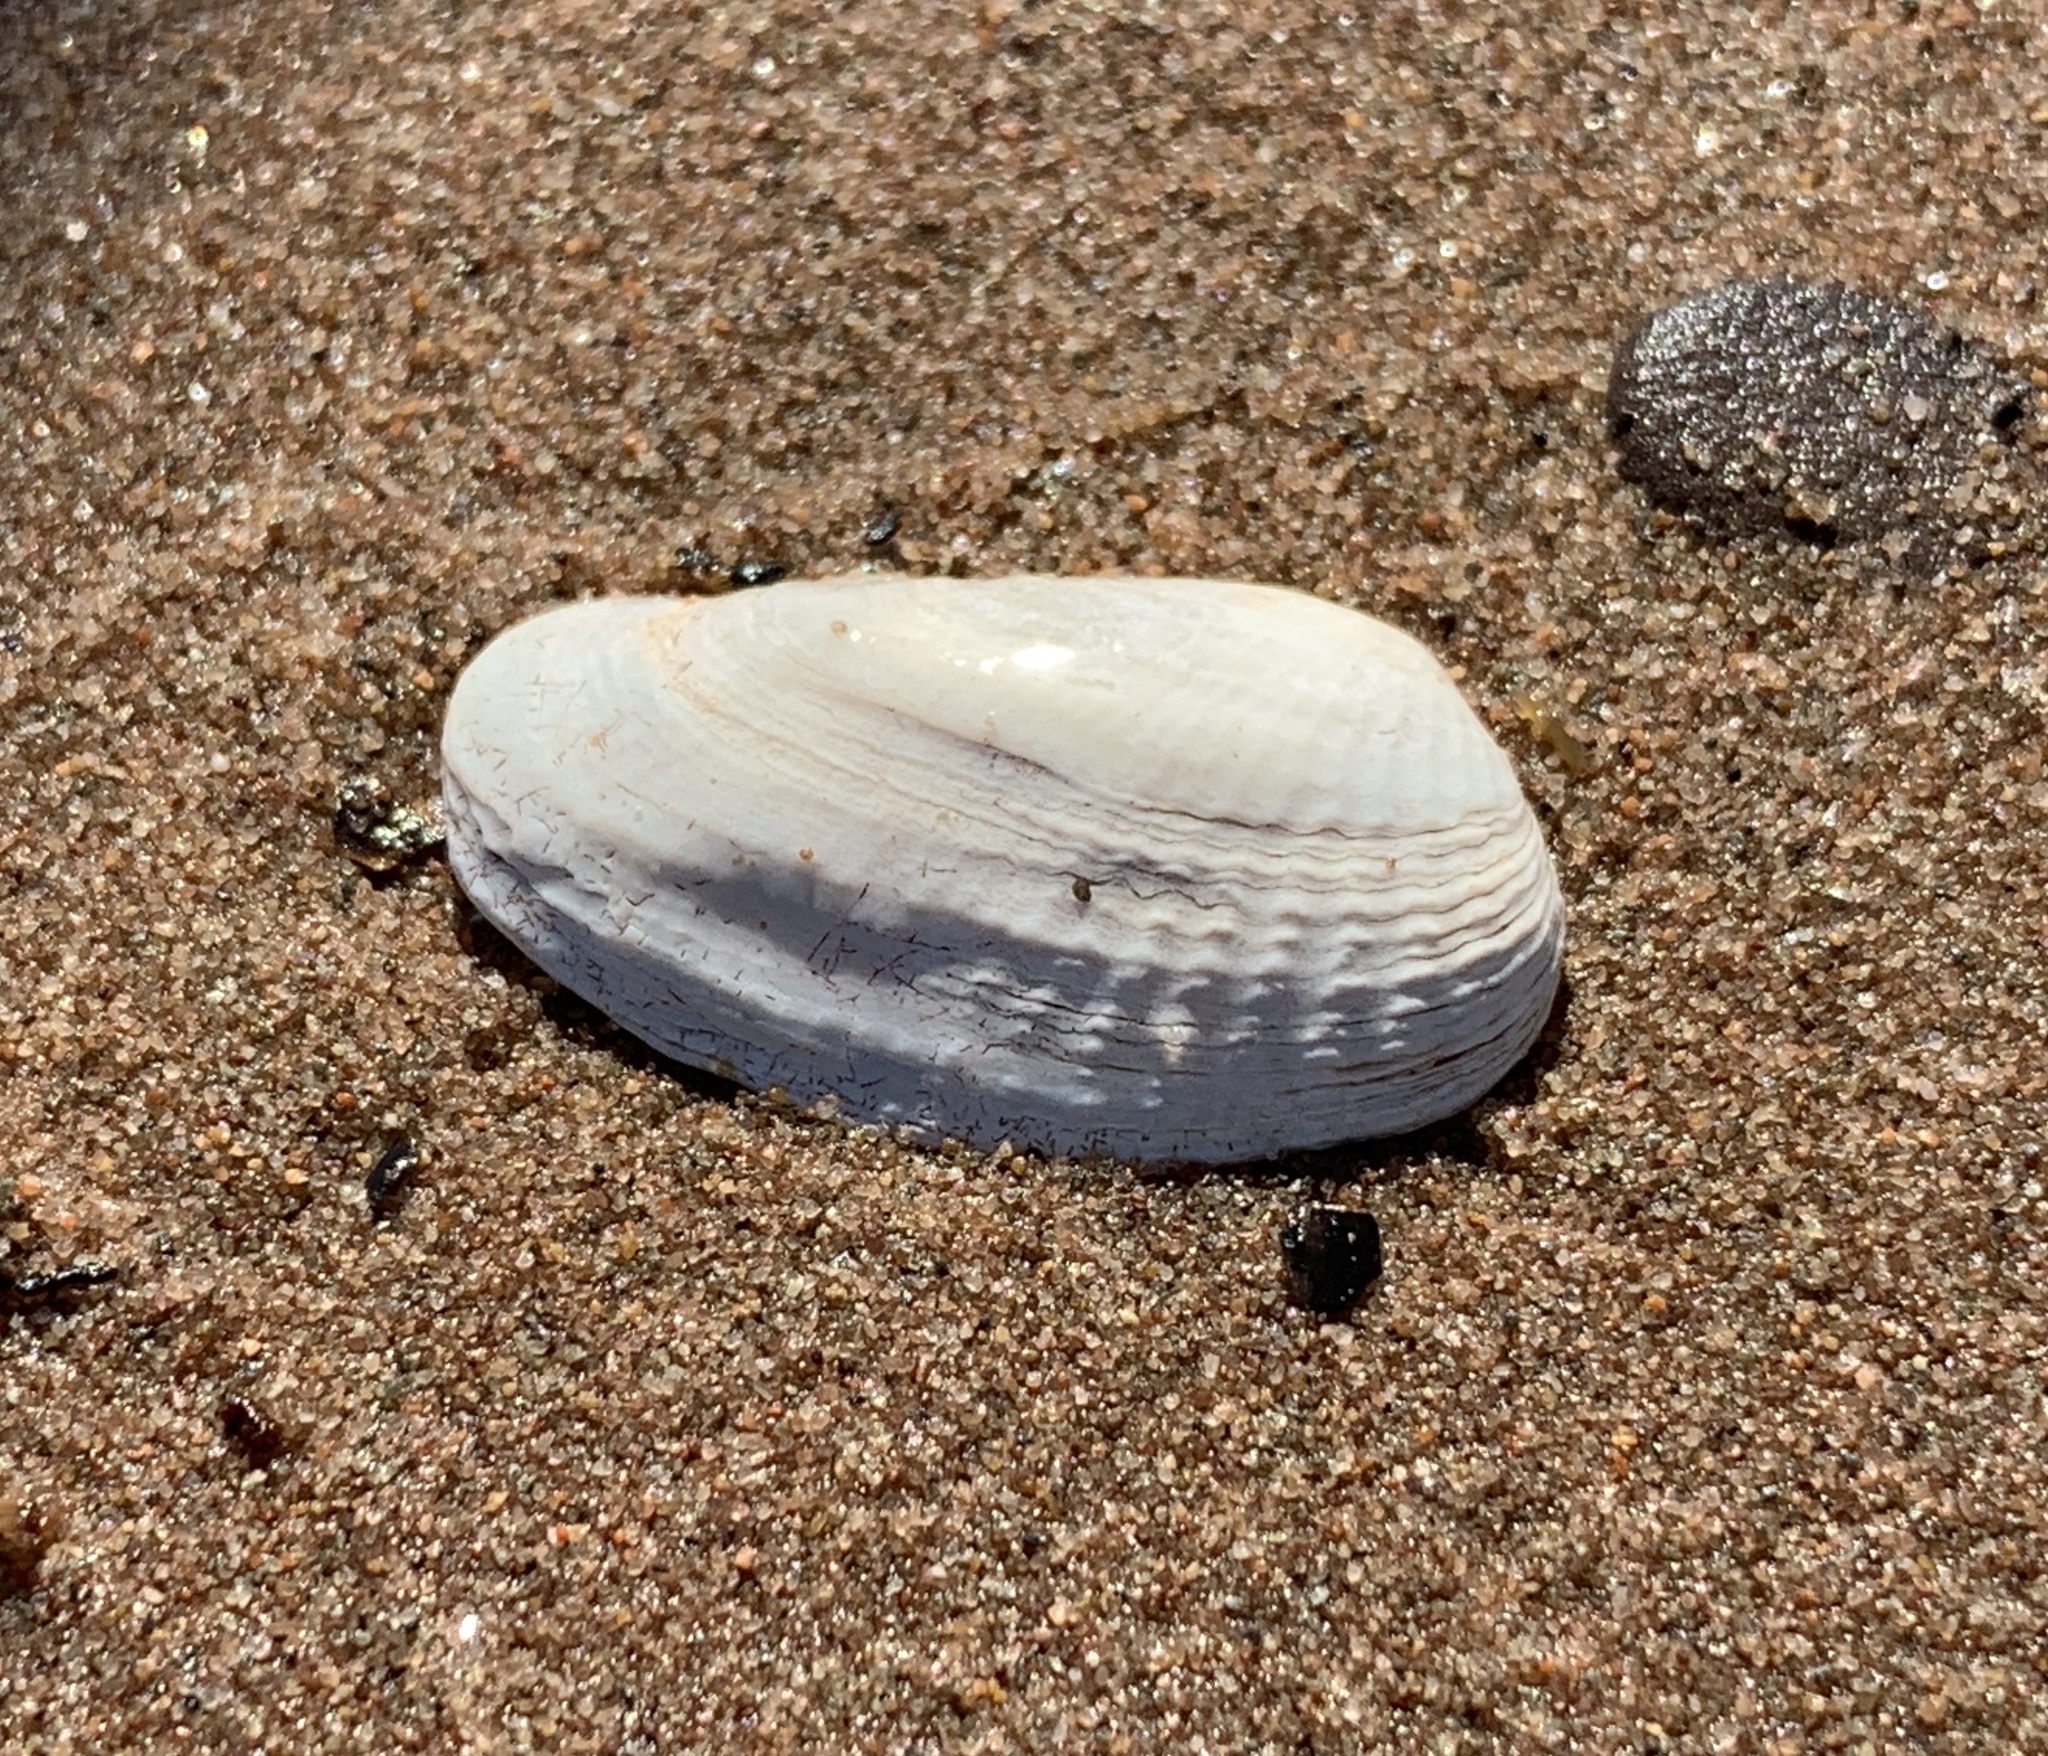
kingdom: Animalia
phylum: Mollusca
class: Bivalvia
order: Venerida
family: Veneridae
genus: Petricolaria
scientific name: Petricolaria pholadiformis
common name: American piddock
